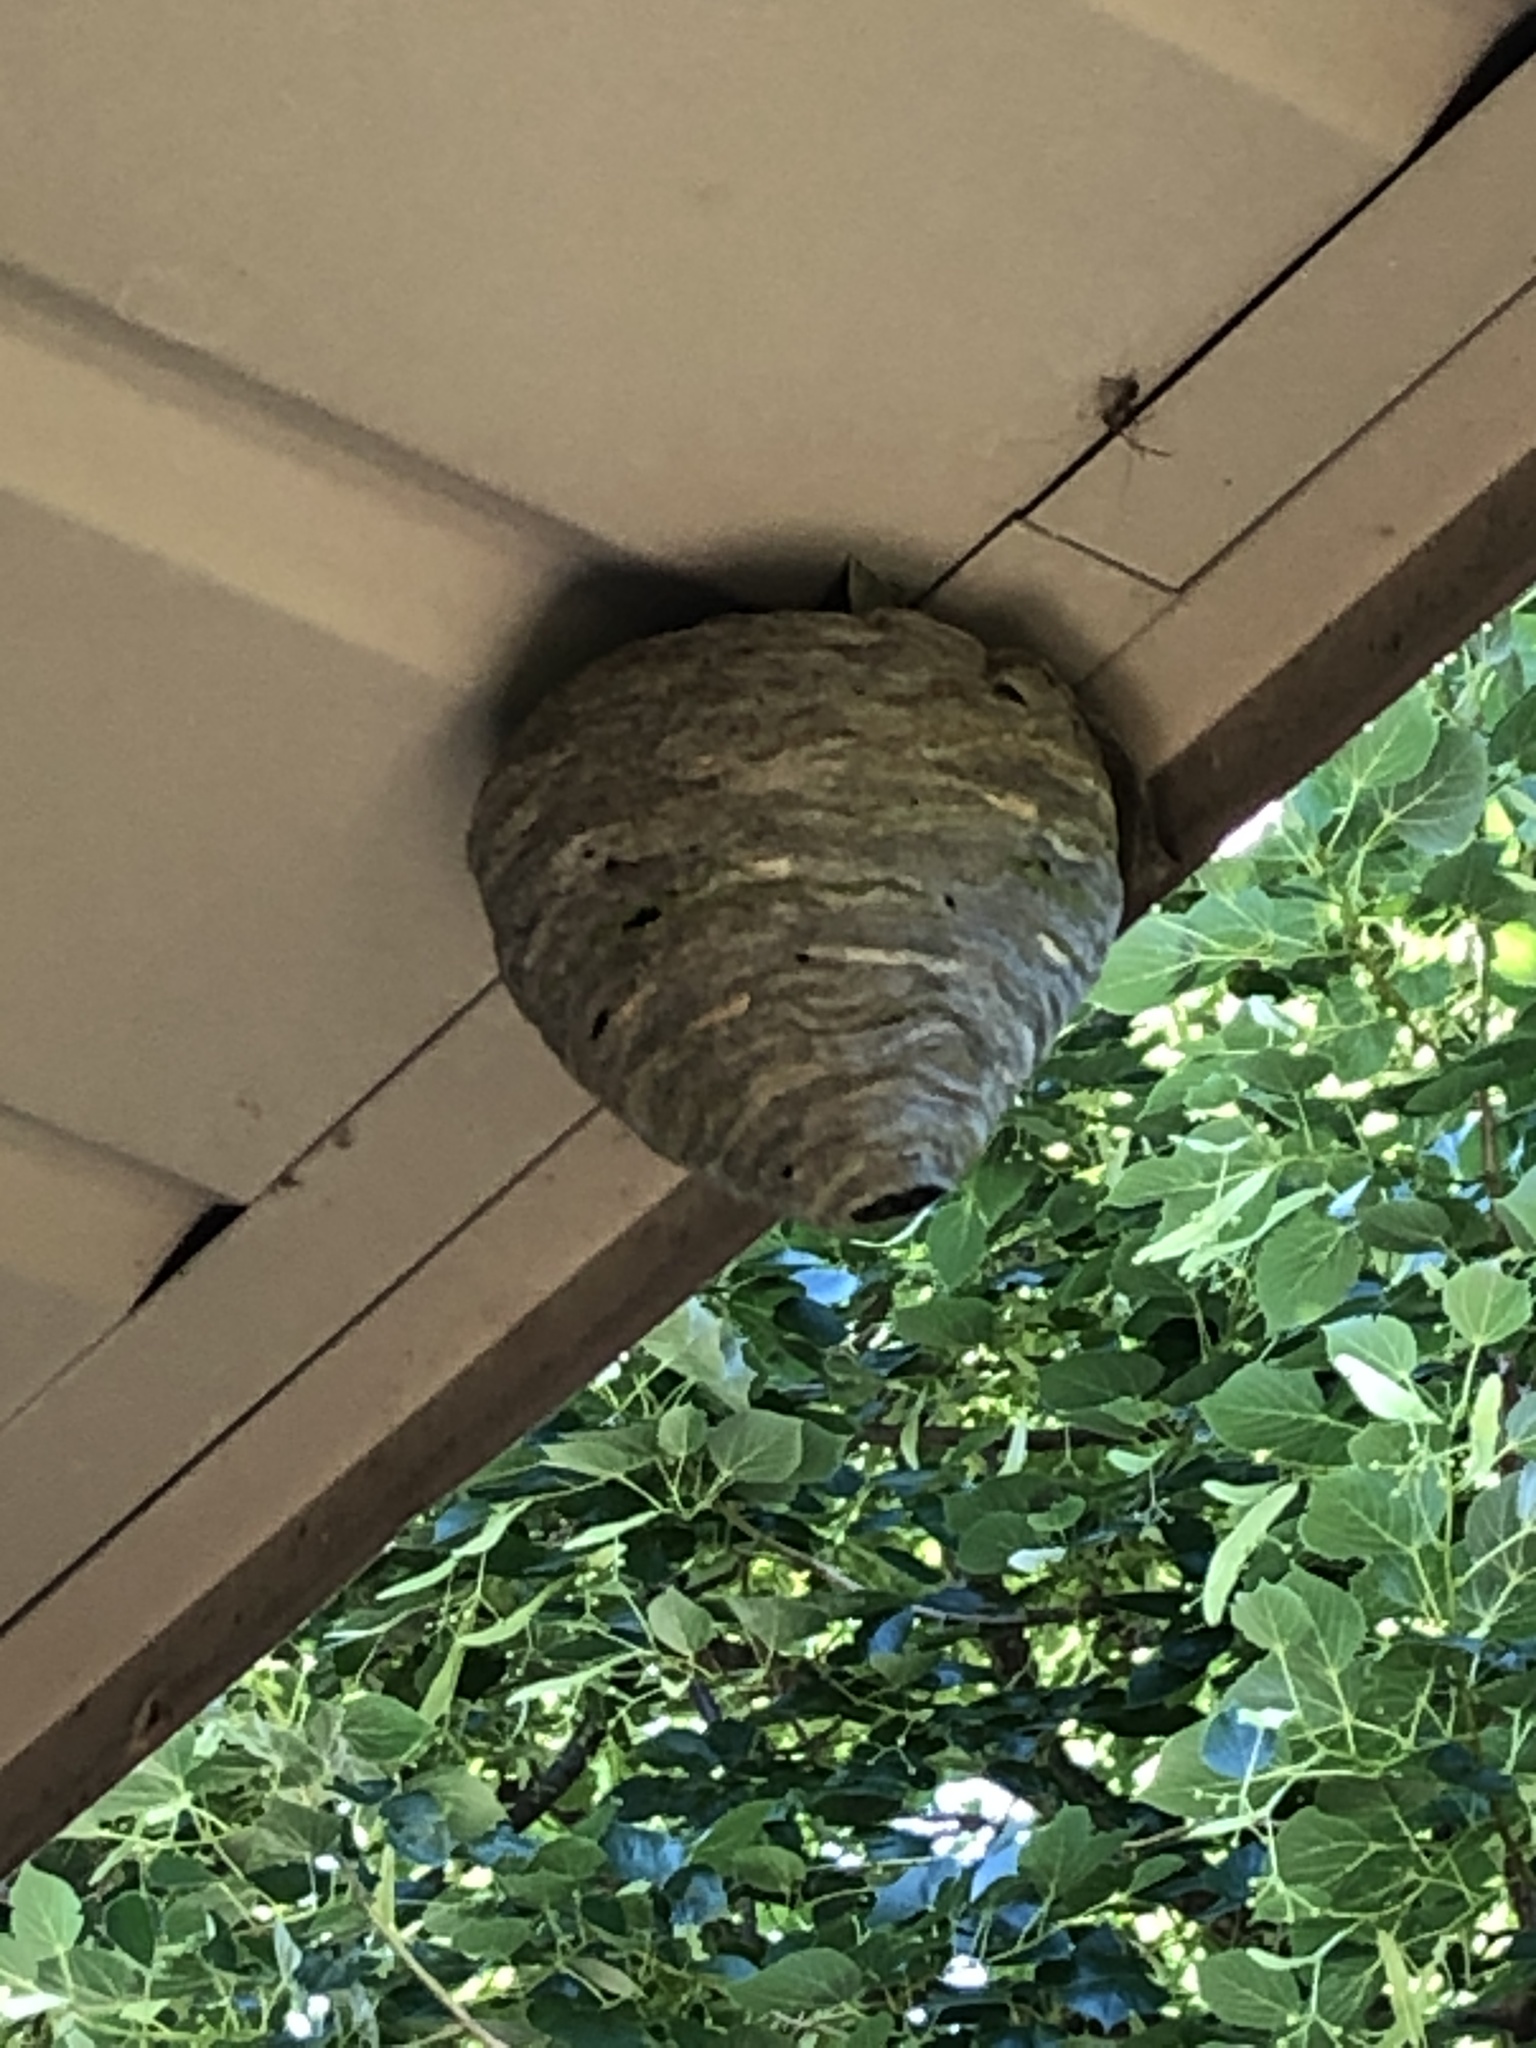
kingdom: Animalia
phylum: Arthropoda
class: Insecta
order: Hymenoptera
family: Vespidae
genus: Dolichovespula
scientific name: Dolichovespula
